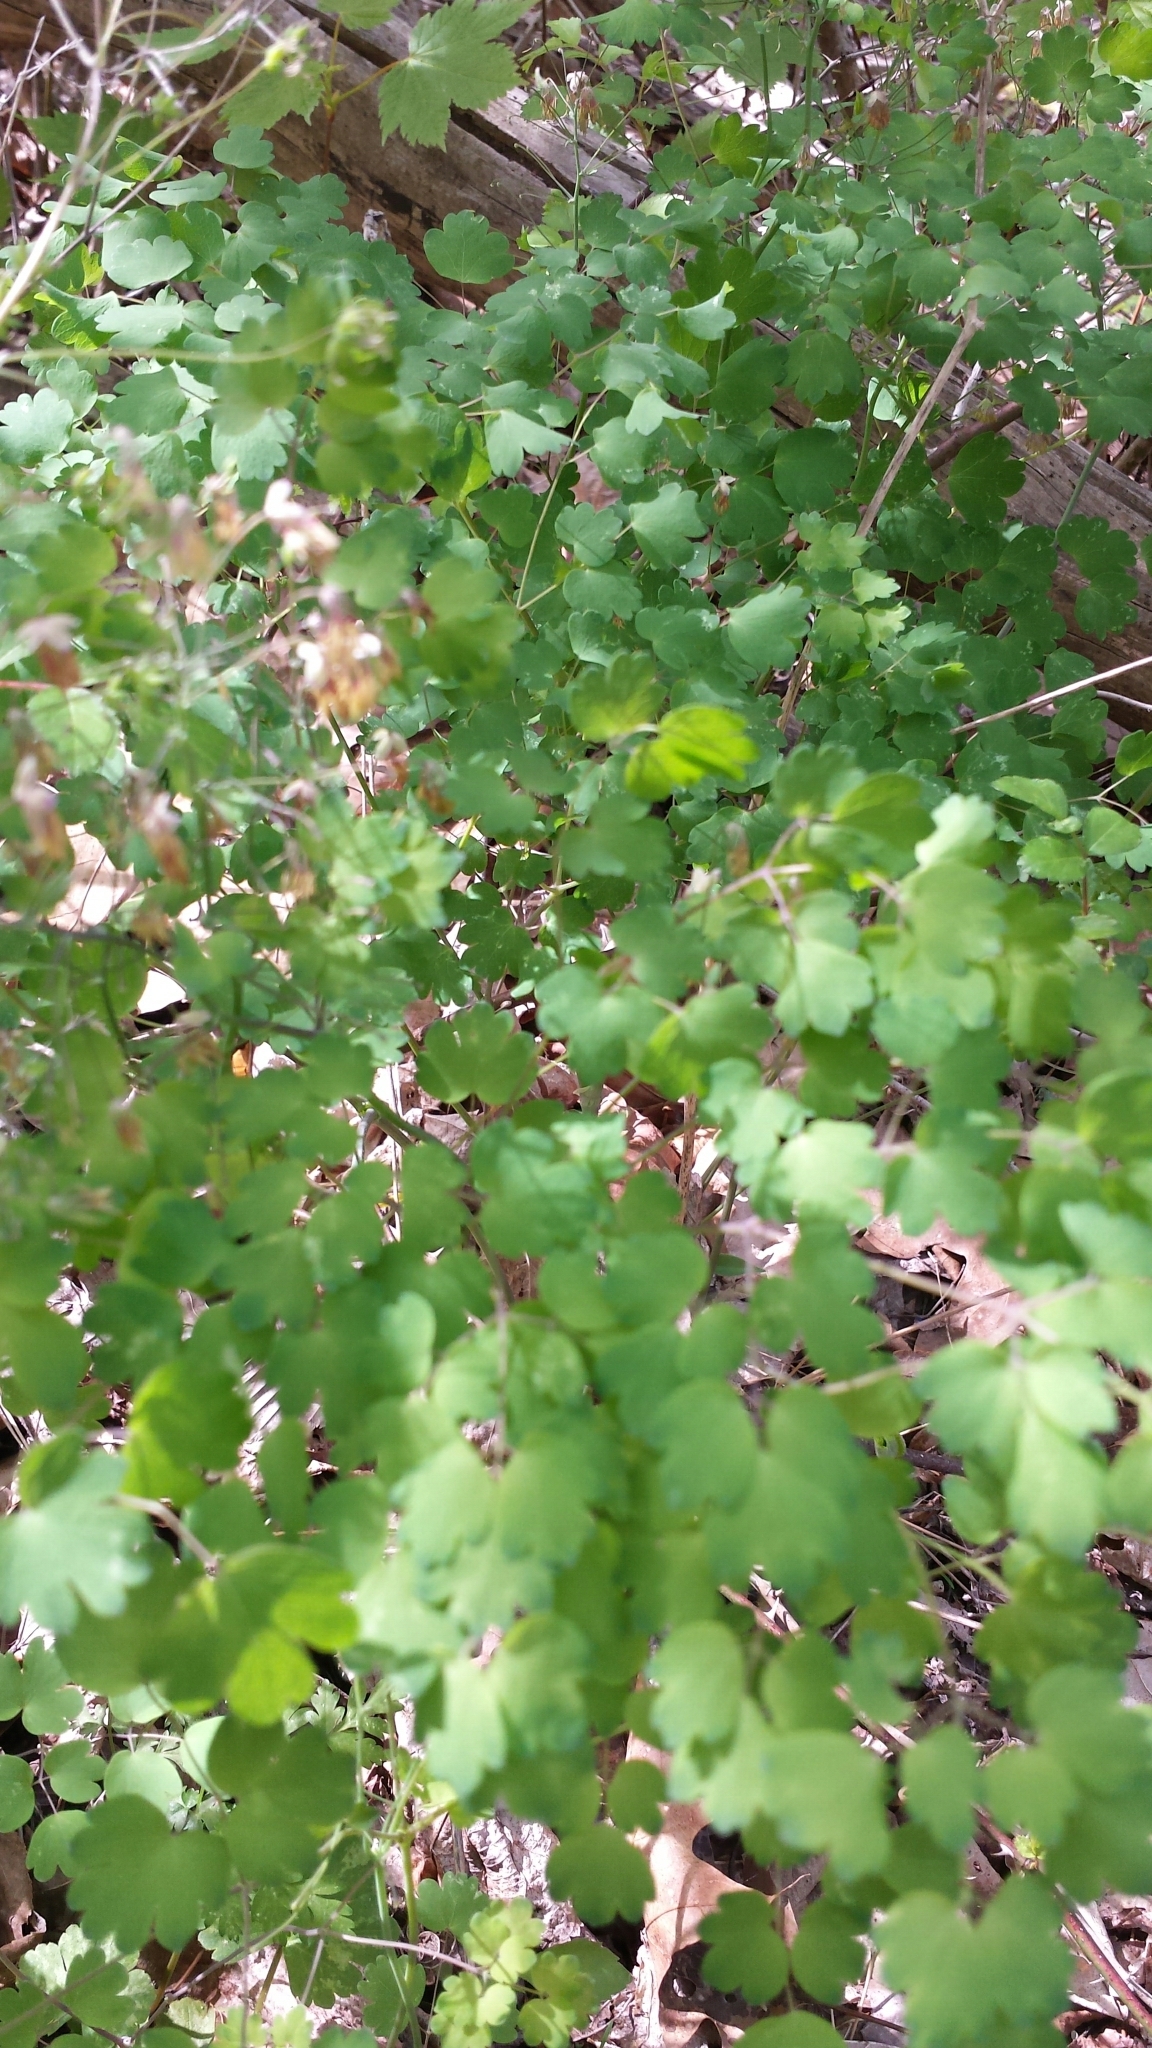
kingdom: Plantae
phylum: Tracheophyta
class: Magnoliopsida
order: Ranunculales
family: Ranunculaceae
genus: Thalictrum
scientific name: Thalictrum dioicum
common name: Early meadow-rue
